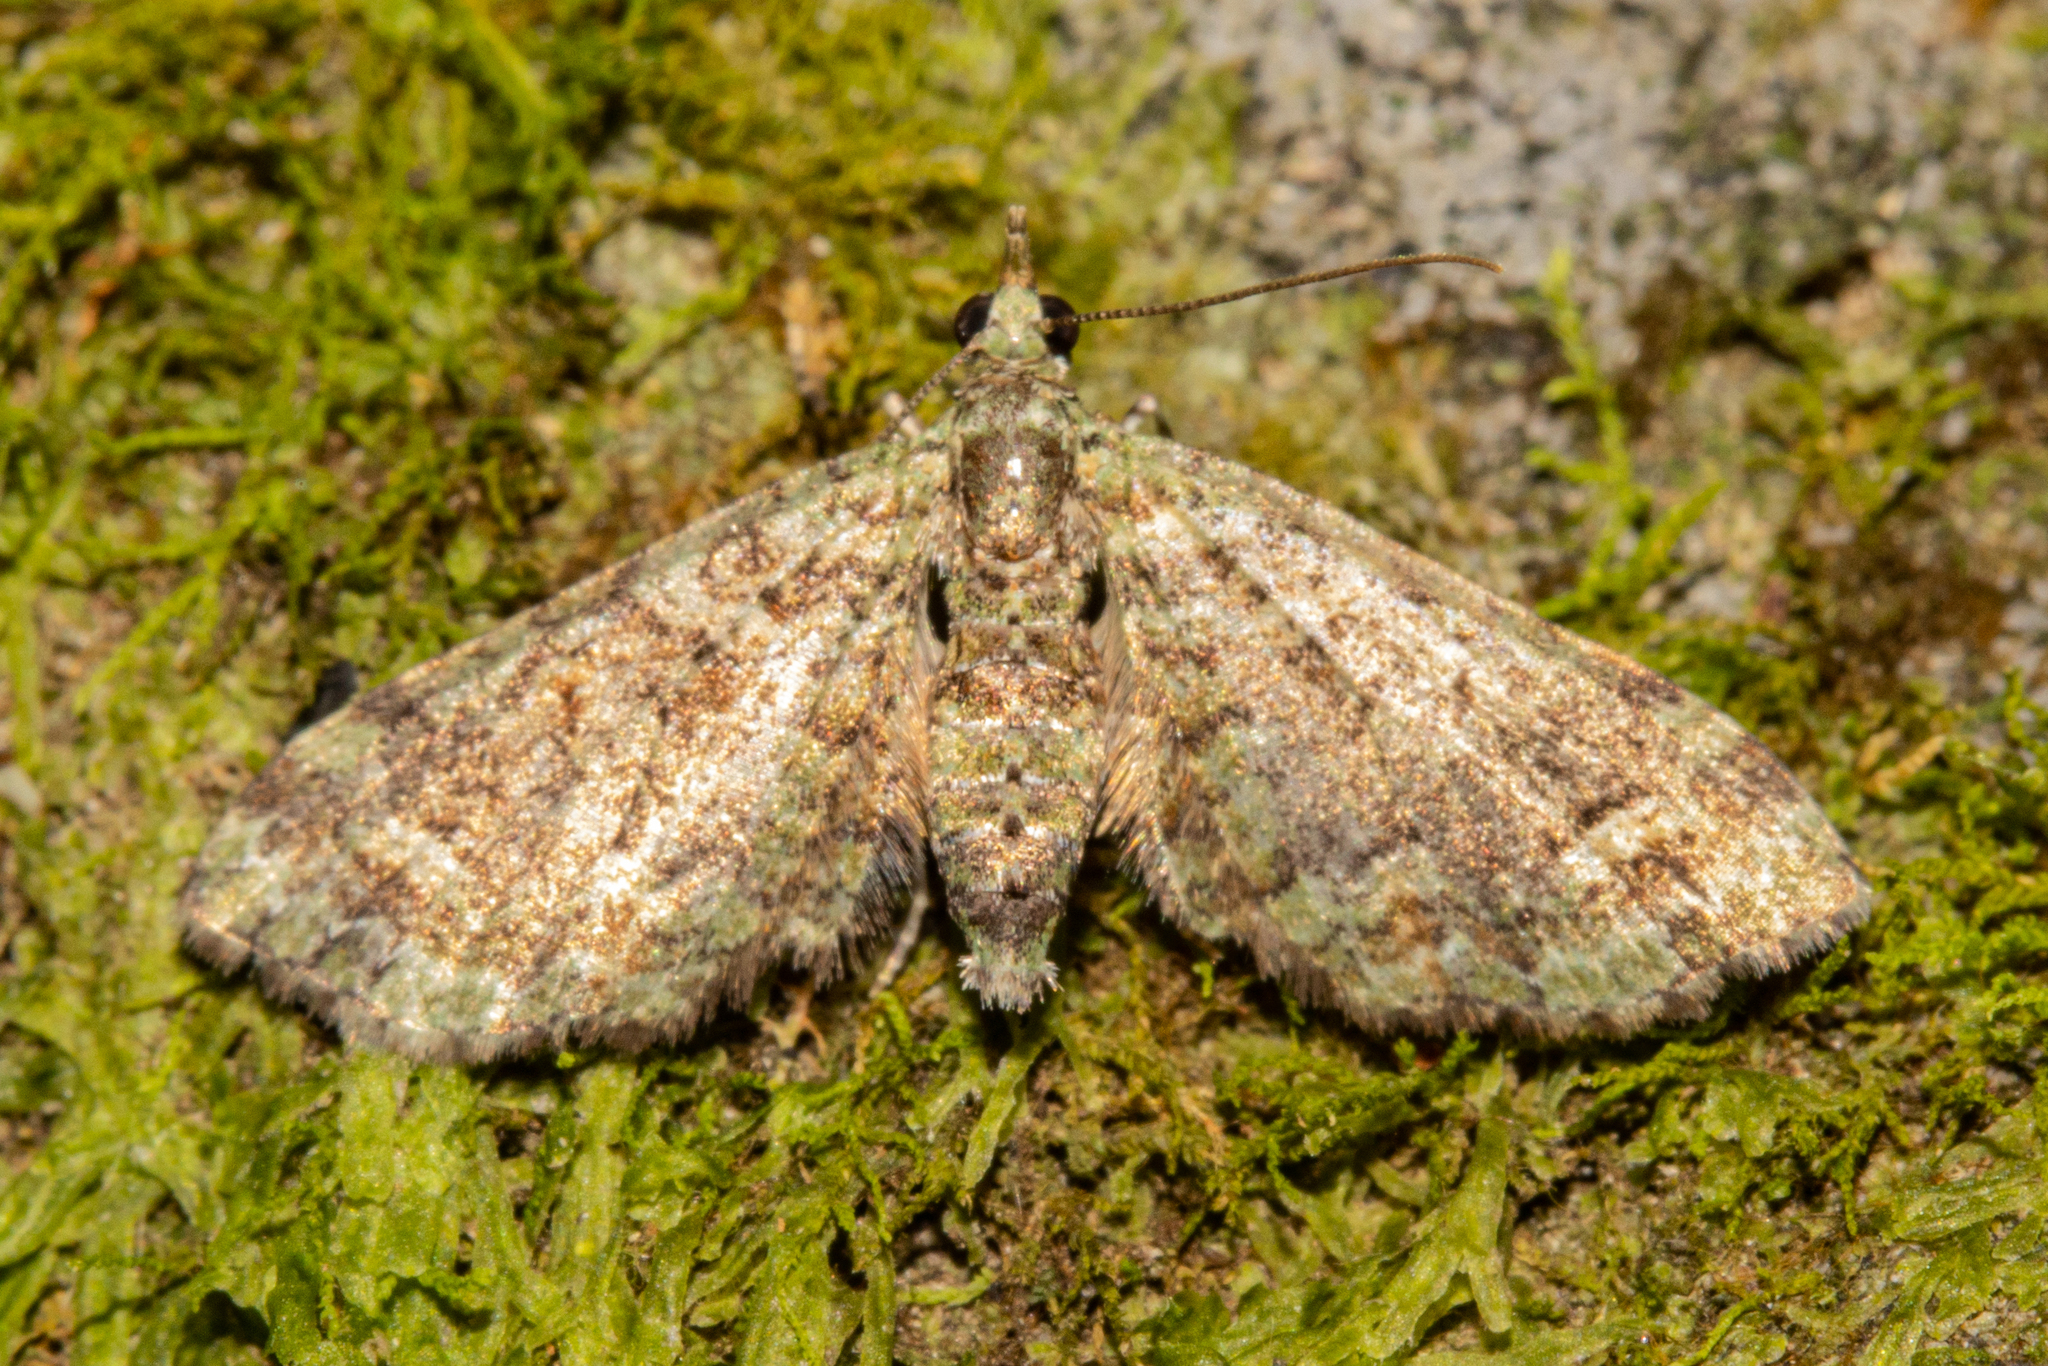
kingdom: Animalia
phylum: Arthropoda
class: Insecta
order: Lepidoptera
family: Geometridae
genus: Idaea
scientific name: Idaea mutanda
